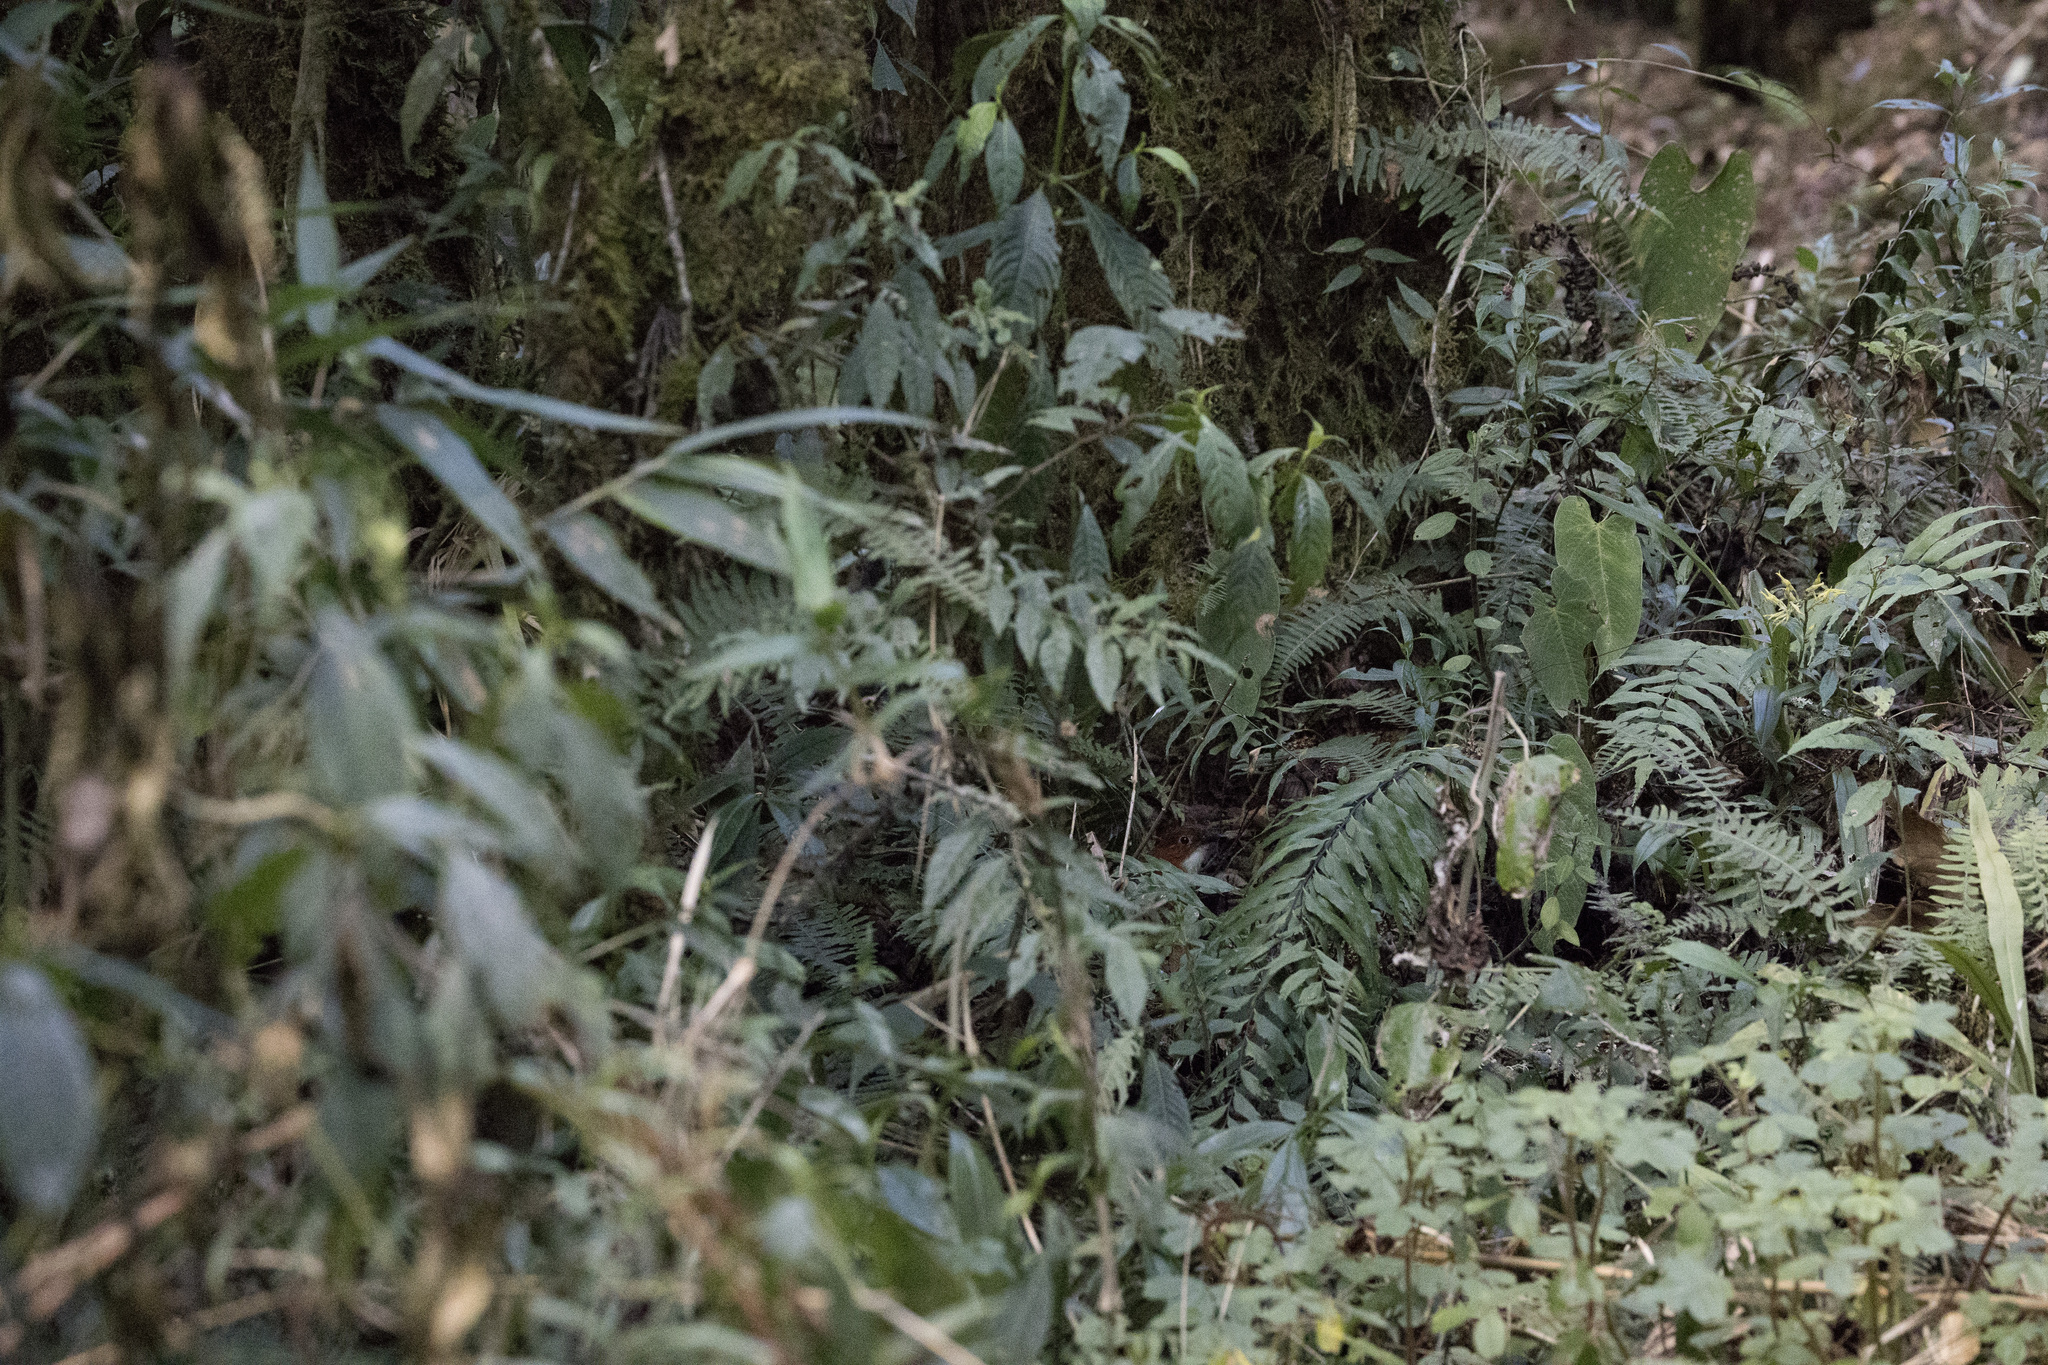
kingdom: Animalia
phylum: Chordata
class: Aves
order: Passeriformes
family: Grallariidae
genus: Grallaria
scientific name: Grallaria erythroleuca
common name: Red-and-white antpitta
